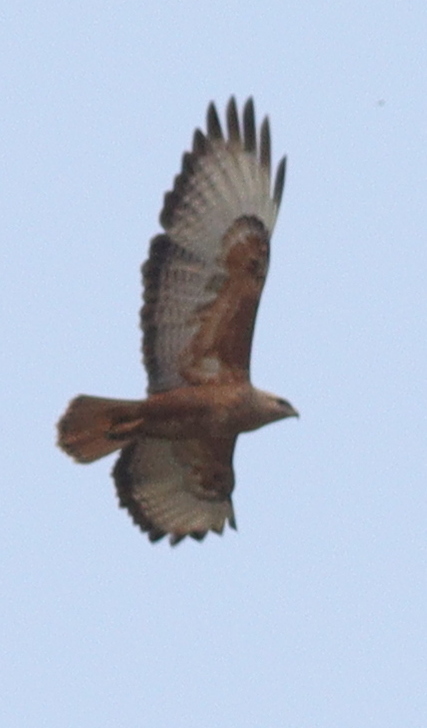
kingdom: Animalia
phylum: Chordata
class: Aves
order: Accipitriformes
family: Accipitridae
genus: Buteo
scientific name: Buteo rufinus
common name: Long-legged buzzard
